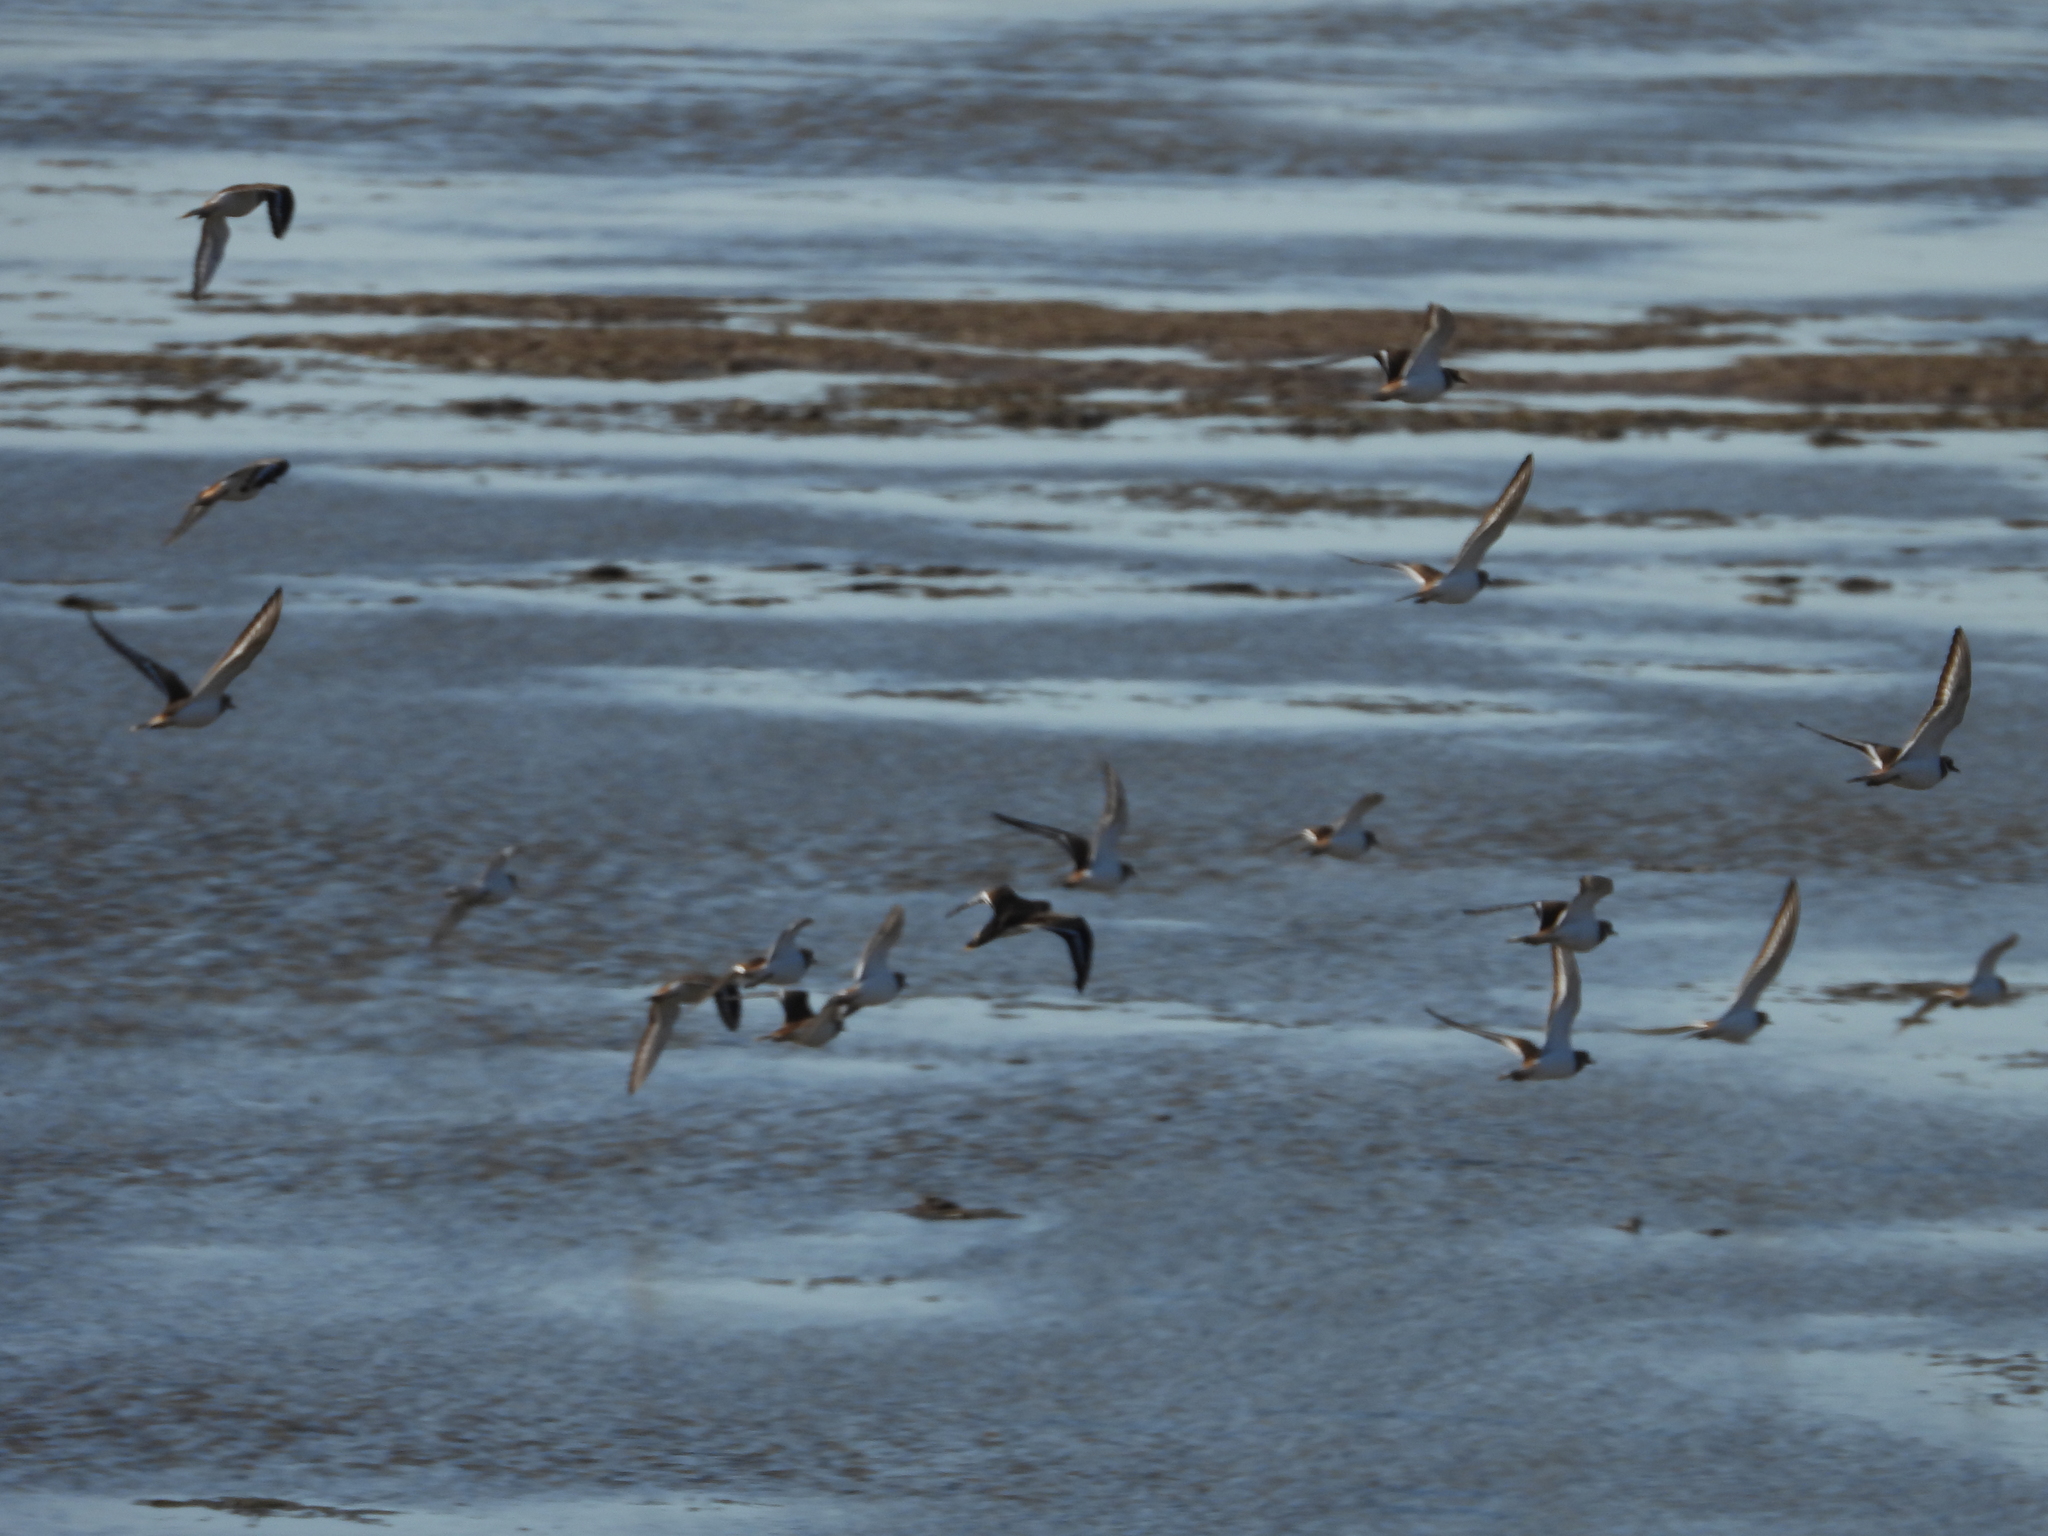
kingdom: Animalia
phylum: Chordata
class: Aves
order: Charadriiformes
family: Charadriidae
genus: Charadrius
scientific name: Charadrius vociferus
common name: Killdeer
